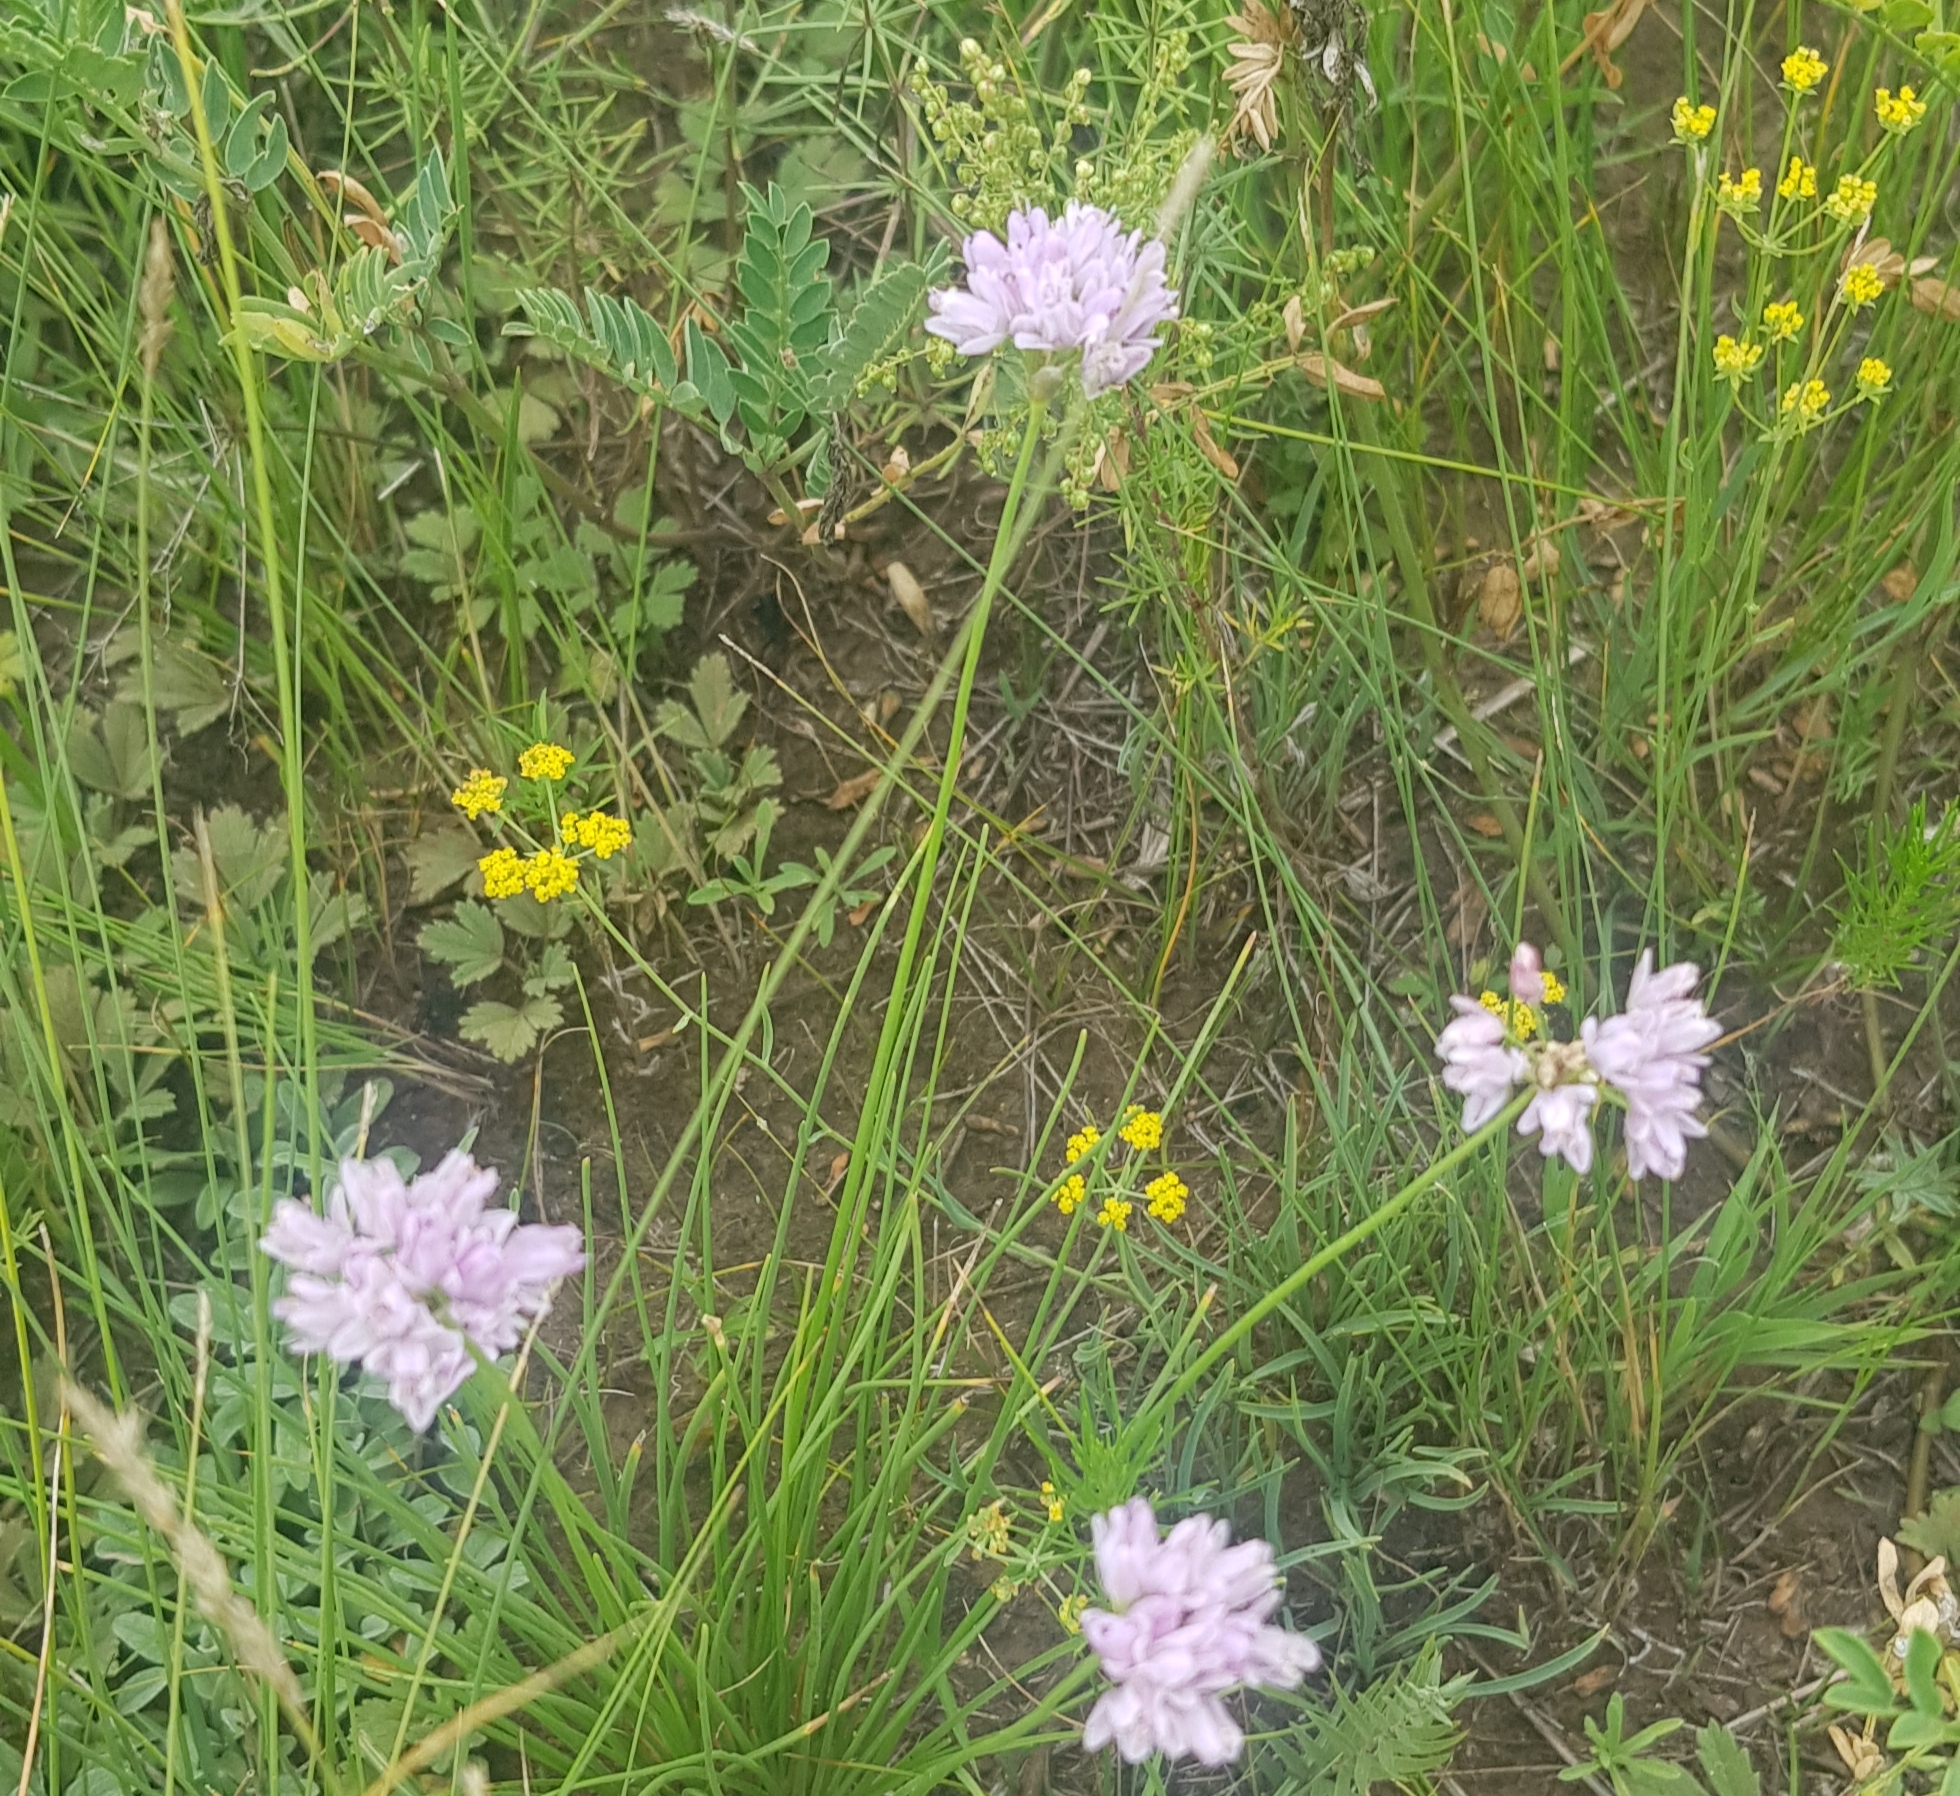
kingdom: Plantae
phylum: Tracheophyta
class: Liliopsida
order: Asparagales
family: Amaryllidaceae
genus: Allium
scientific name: Allium bidentatum
